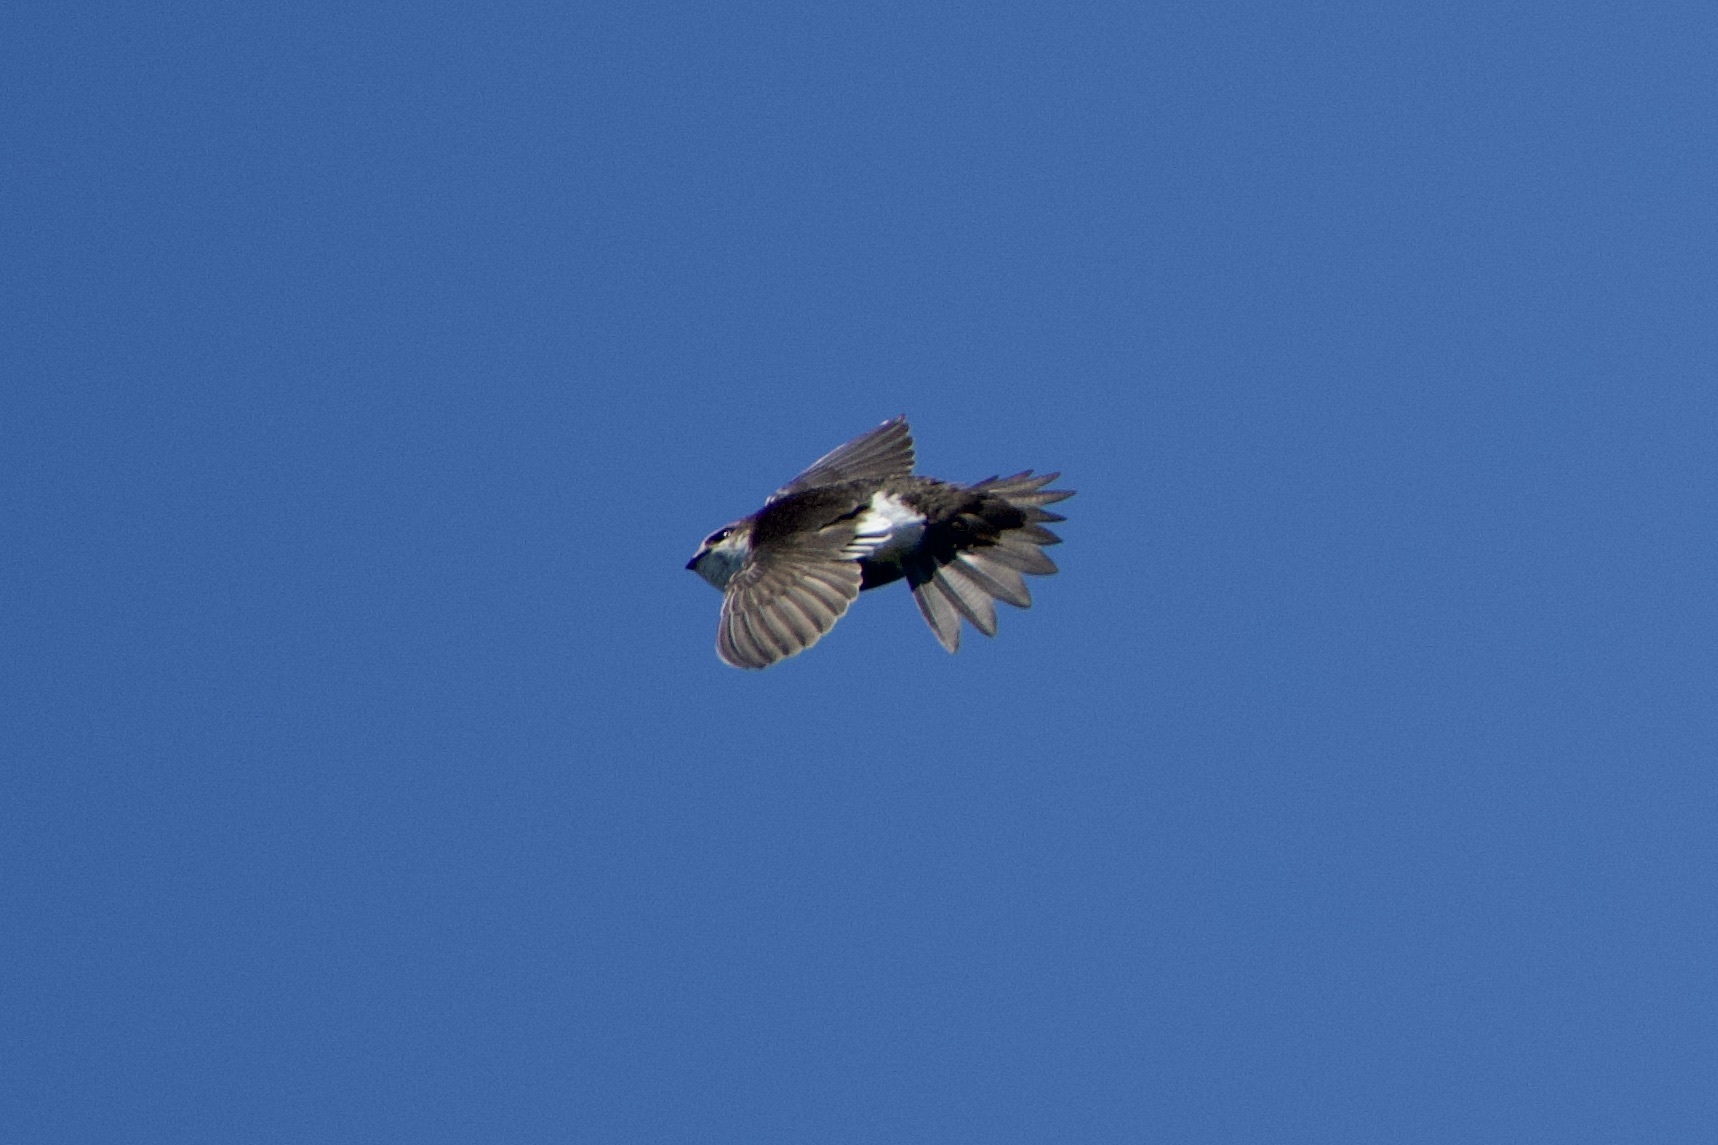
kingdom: Animalia
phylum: Chordata
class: Aves
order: Apodiformes
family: Apodidae
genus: Aeronautes
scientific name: Aeronautes saxatalis
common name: White-throated swift
